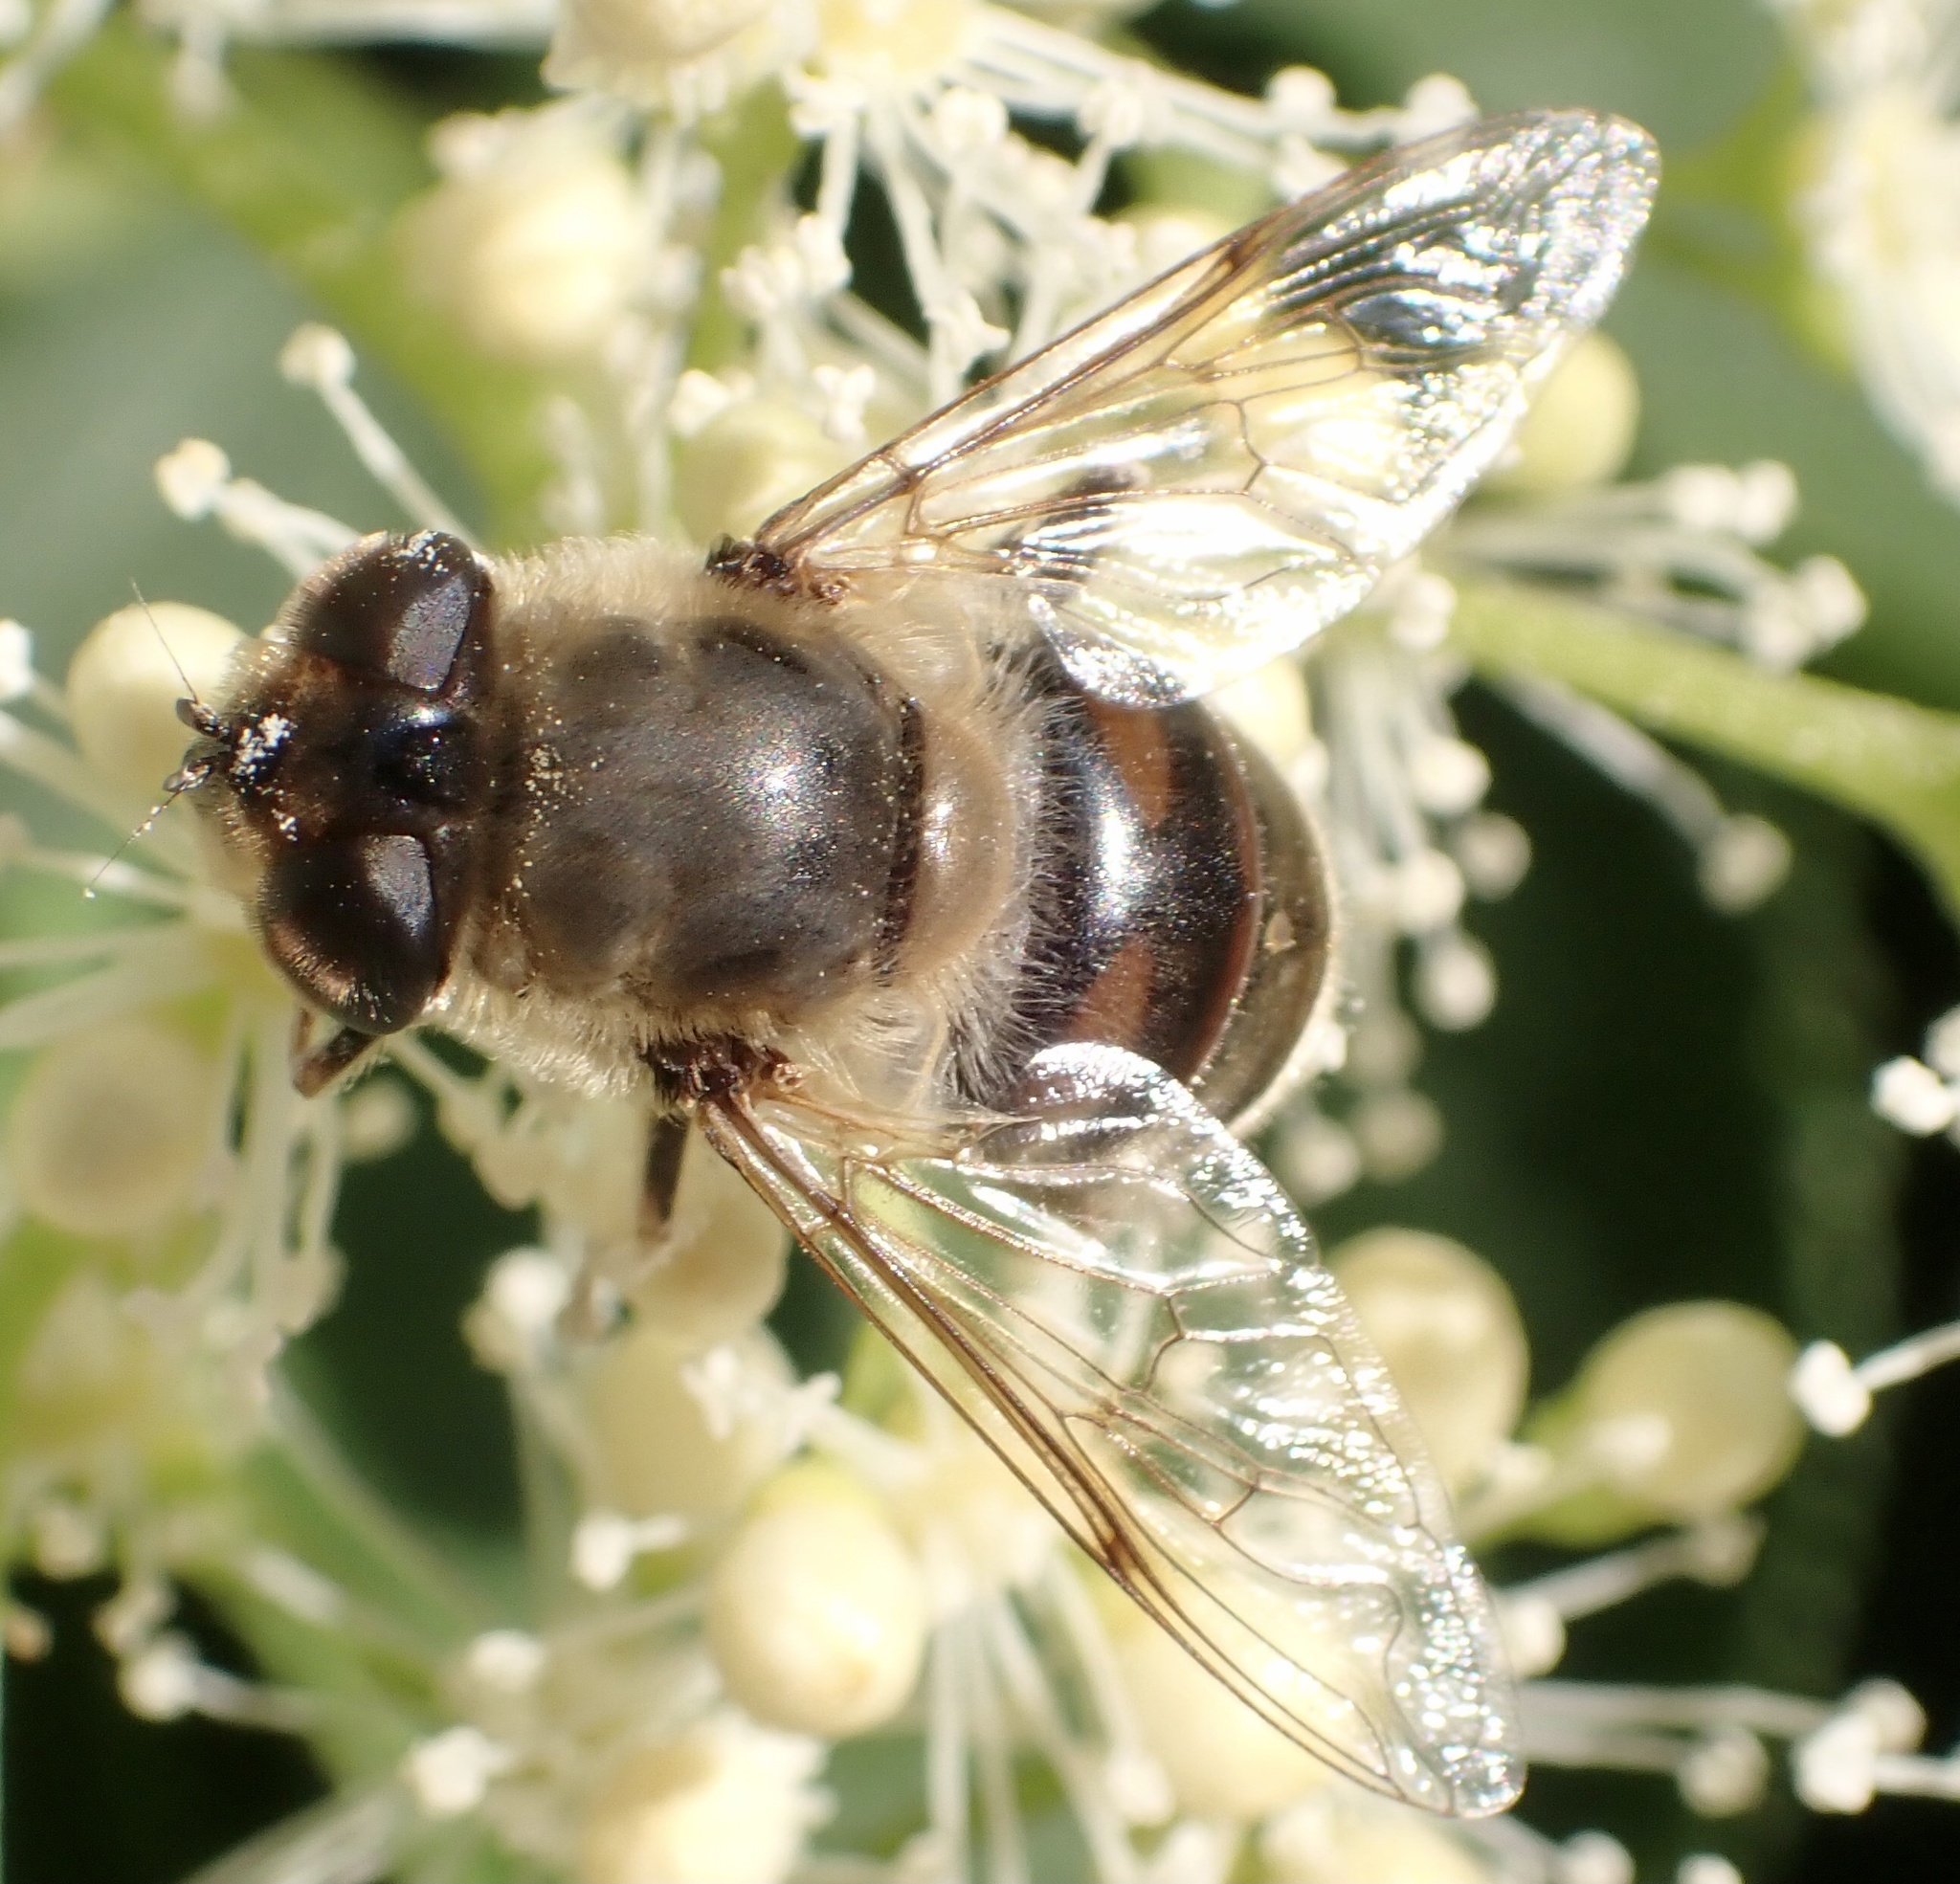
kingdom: Animalia
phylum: Arthropoda
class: Insecta
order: Diptera
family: Syrphidae
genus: Eristalis
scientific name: Eristalis tenax
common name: Drone fly
